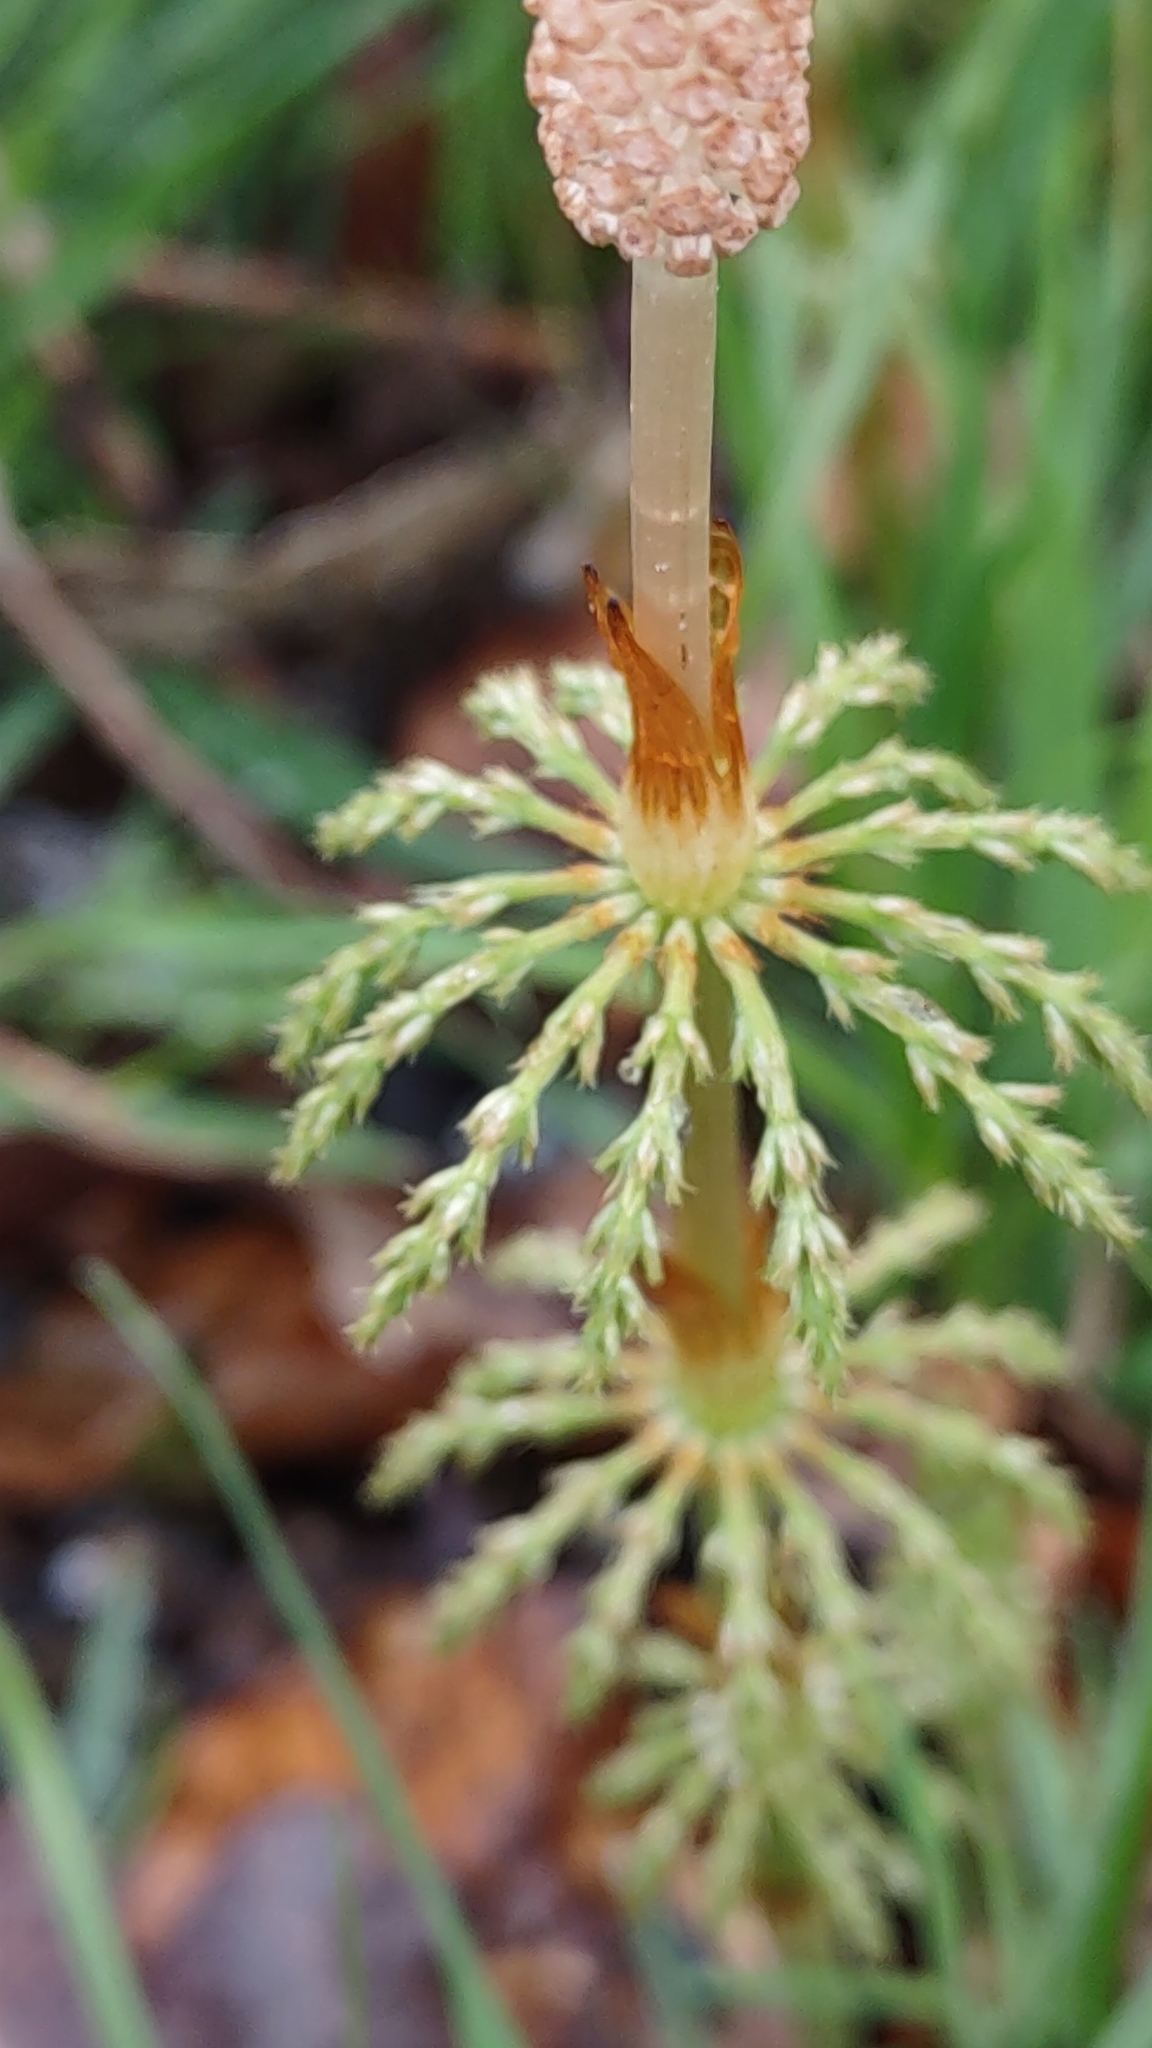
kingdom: Plantae
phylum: Tracheophyta
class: Polypodiopsida
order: Equisetales
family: Equisetaceae
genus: Equisetum
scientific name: Equisetum sylvaticum
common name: Wood horsetail
